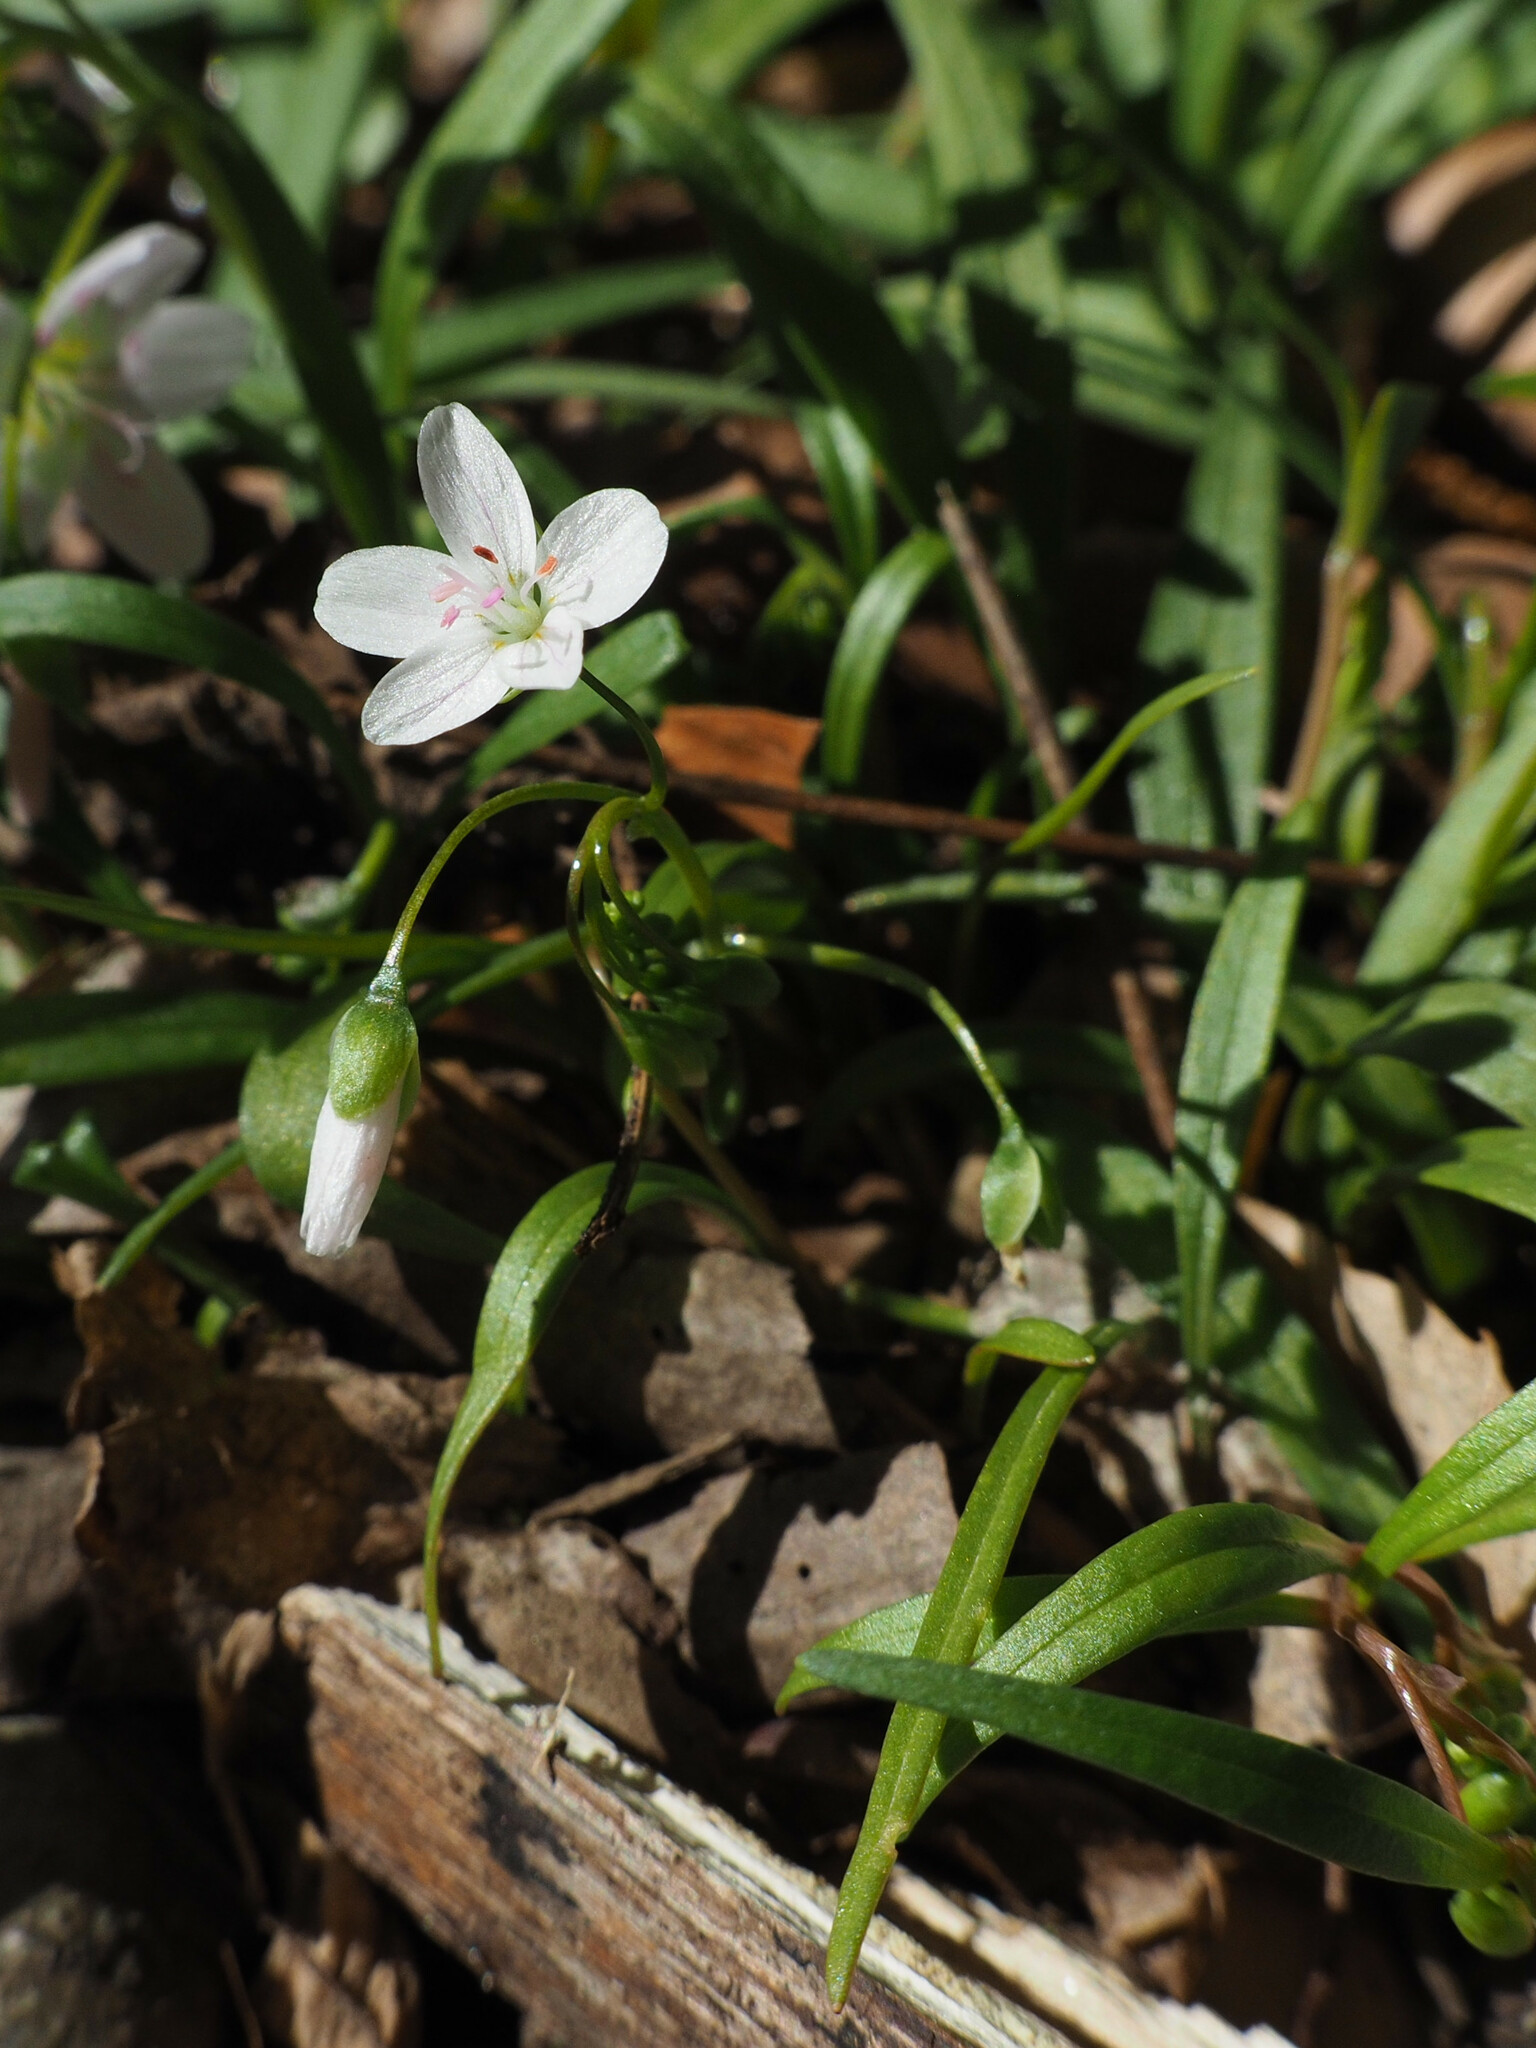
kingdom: Plantae
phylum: Tracheophyta
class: Magnoliopsida
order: Caryophyllales
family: Montiaceae
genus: Claytonia
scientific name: Claytonia virginica
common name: Virginia springbeauty
